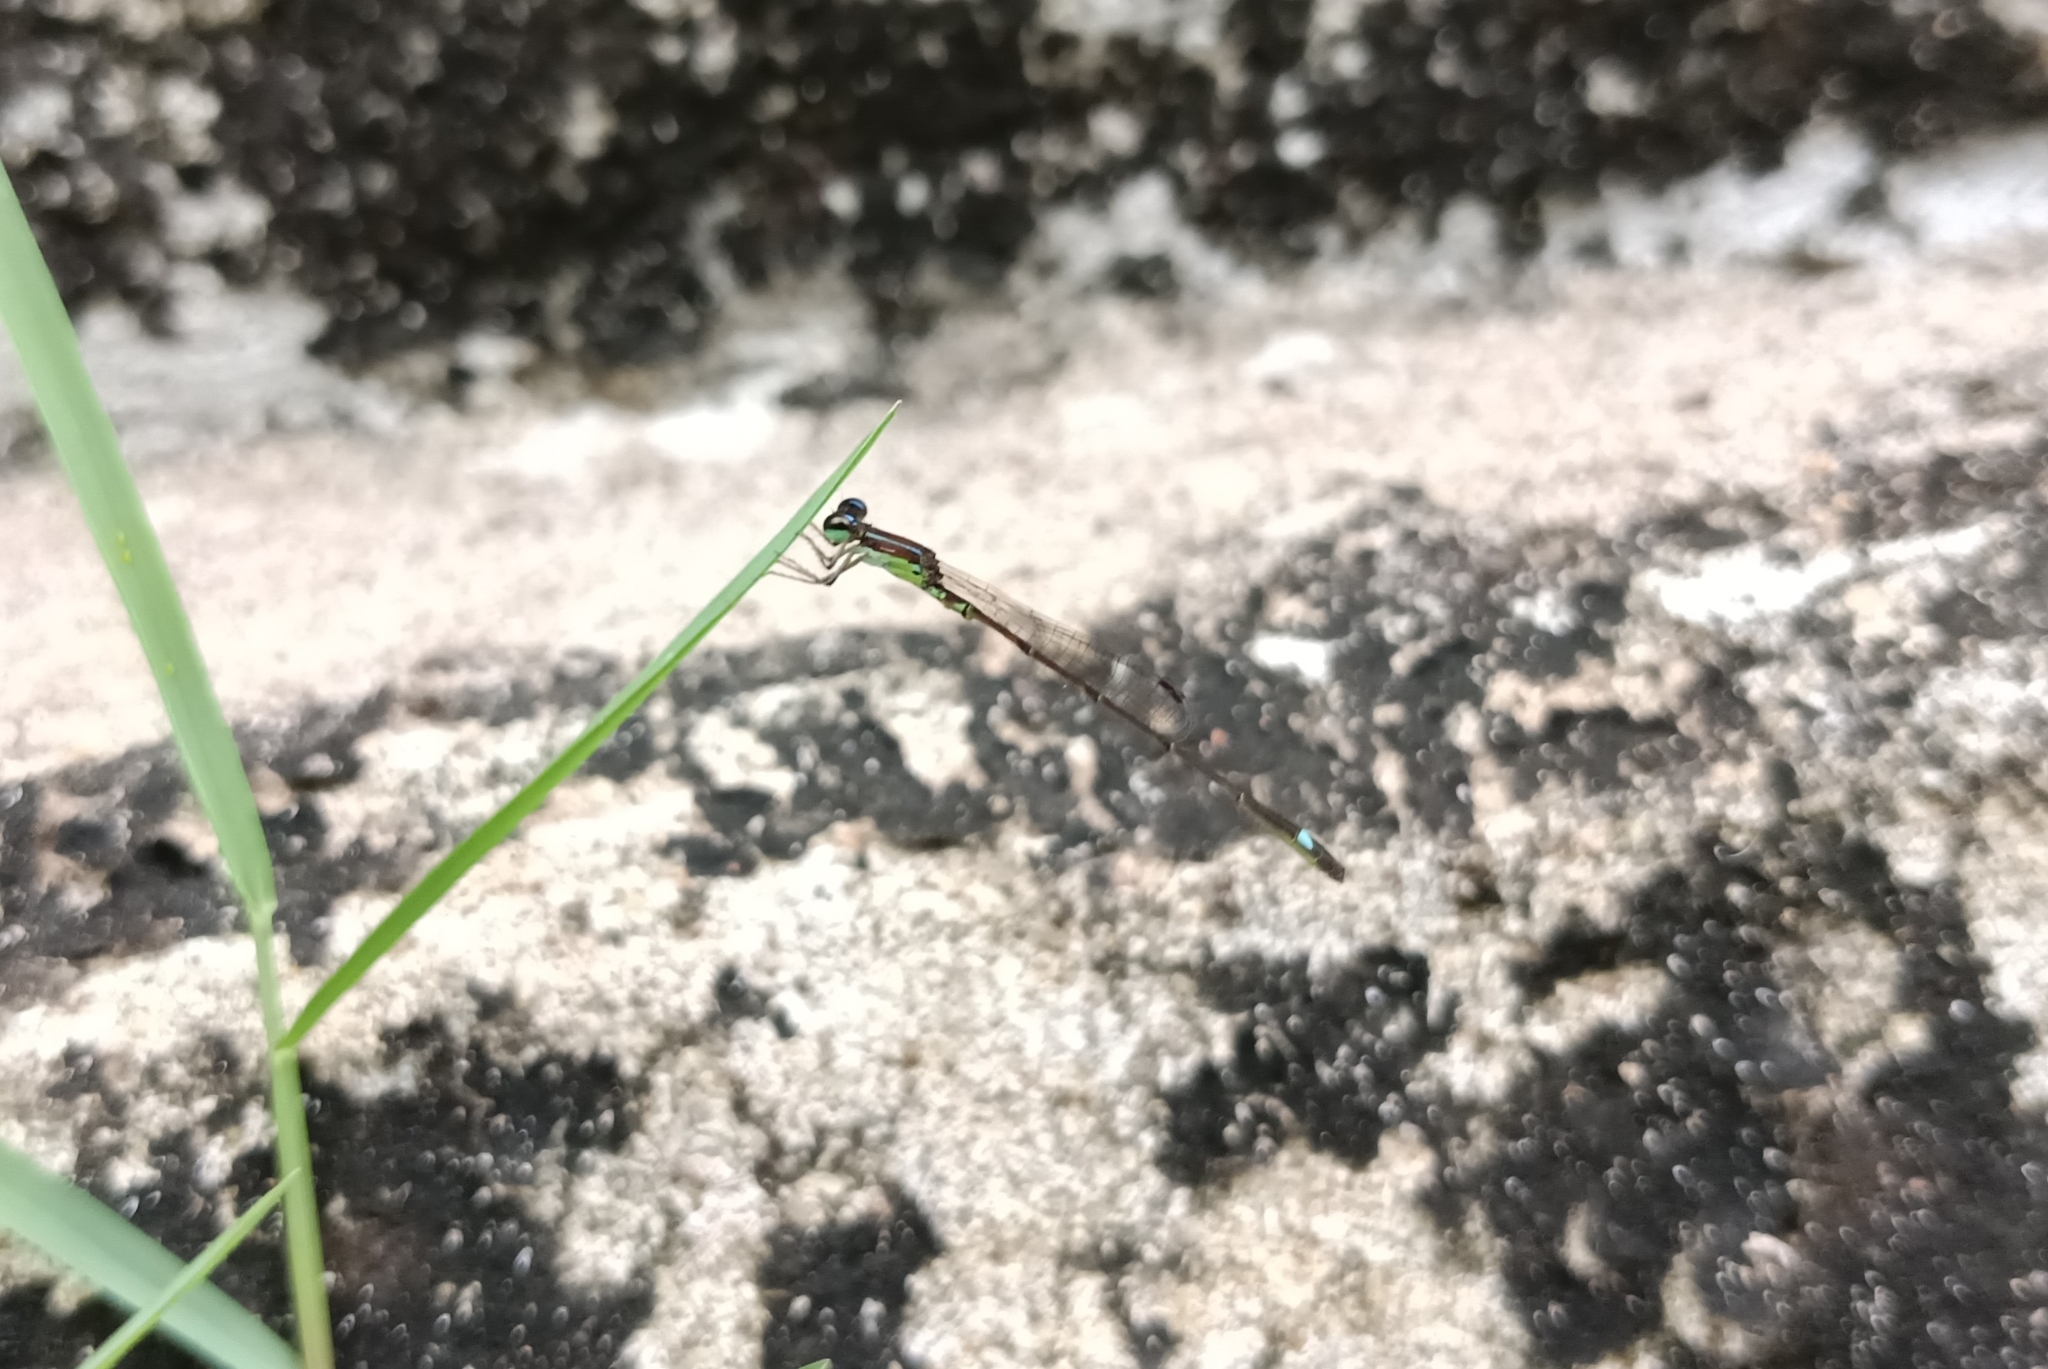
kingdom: Animalia
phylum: Arthropoda
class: Insecta
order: Odonata
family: Coenagrionidae
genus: Mortonagrion
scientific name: Mortonagrion varralli
